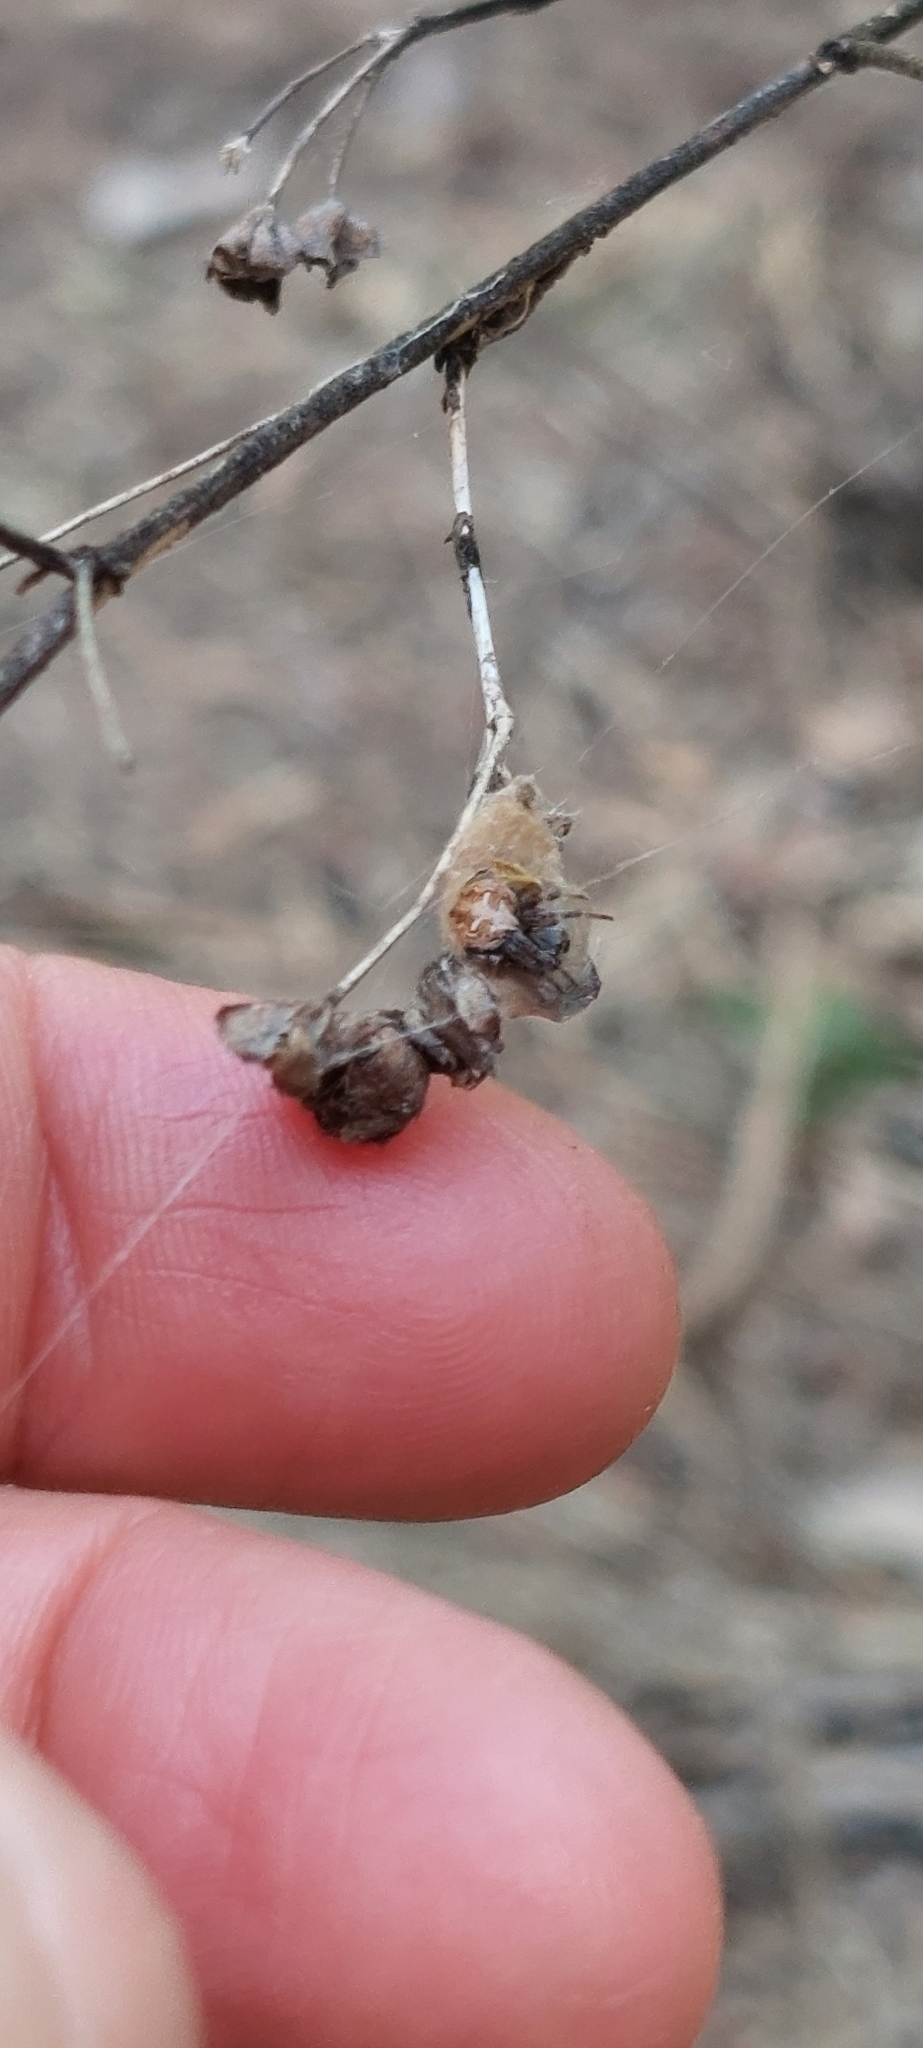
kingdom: Animalia
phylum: Arthropoda
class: Arachnida
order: Araneae
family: Araneidae
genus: Metepeira
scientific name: Metepeira
